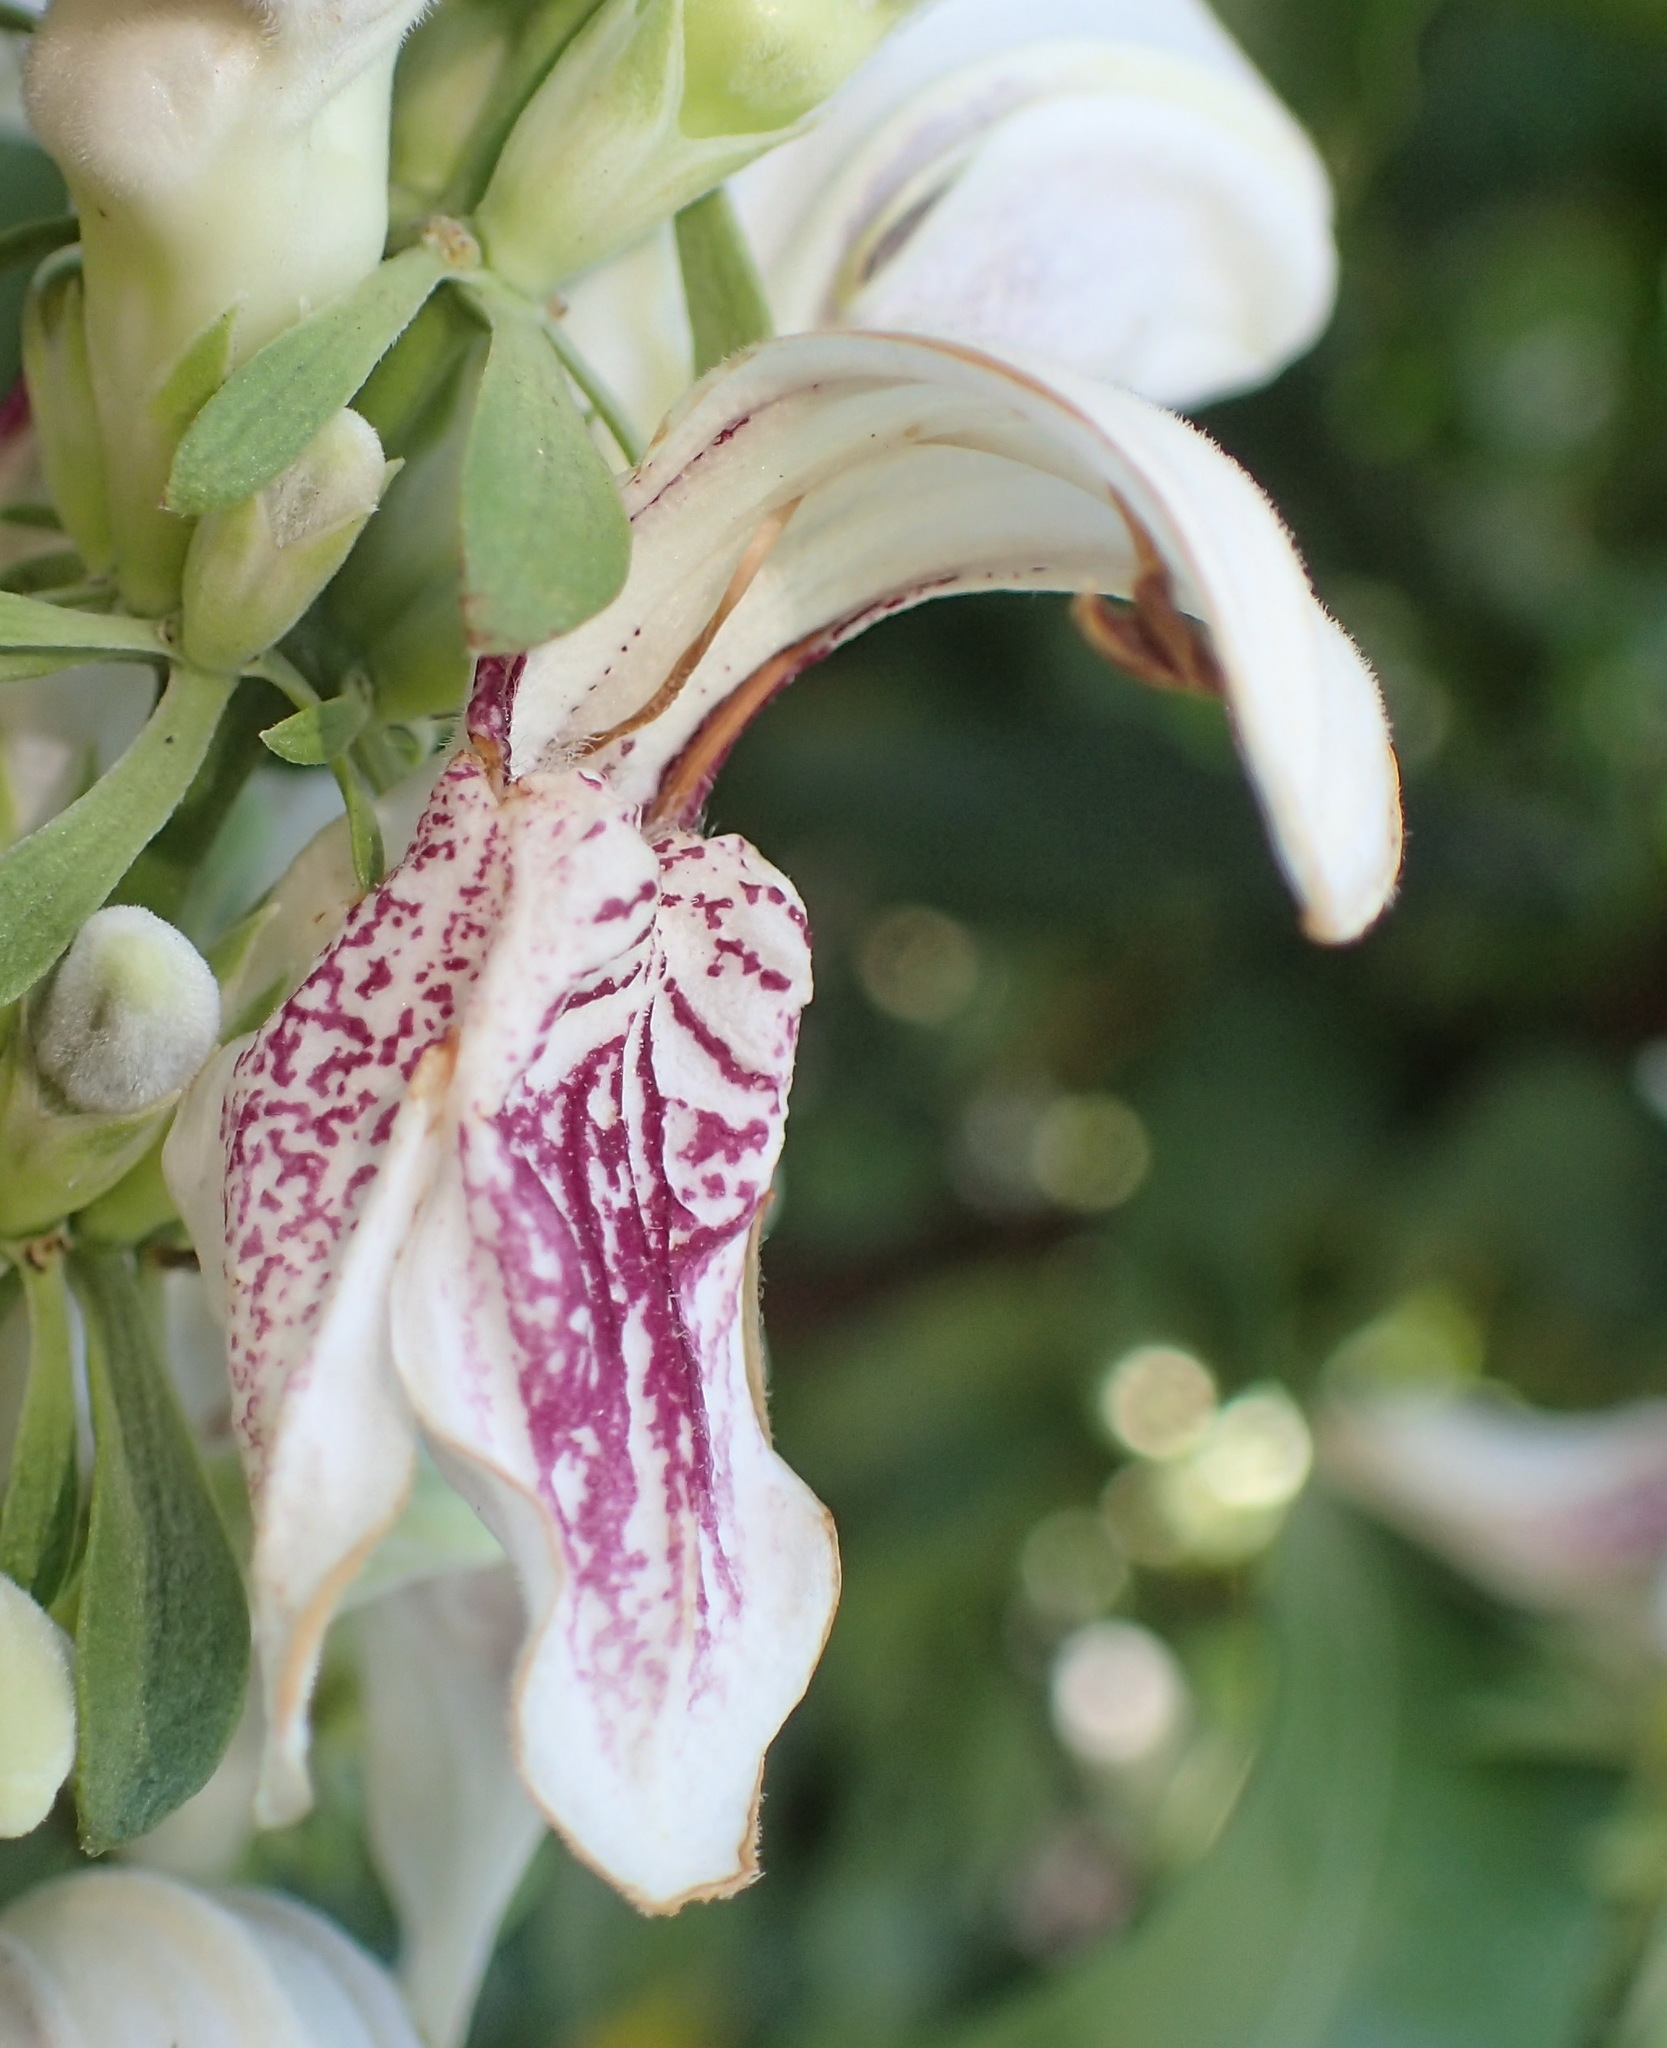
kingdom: Plantae
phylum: Tracheophyta
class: Magnoliopsida
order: Lamiales
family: Acanthaceae
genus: Justicia
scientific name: Justicia adhatodoides
